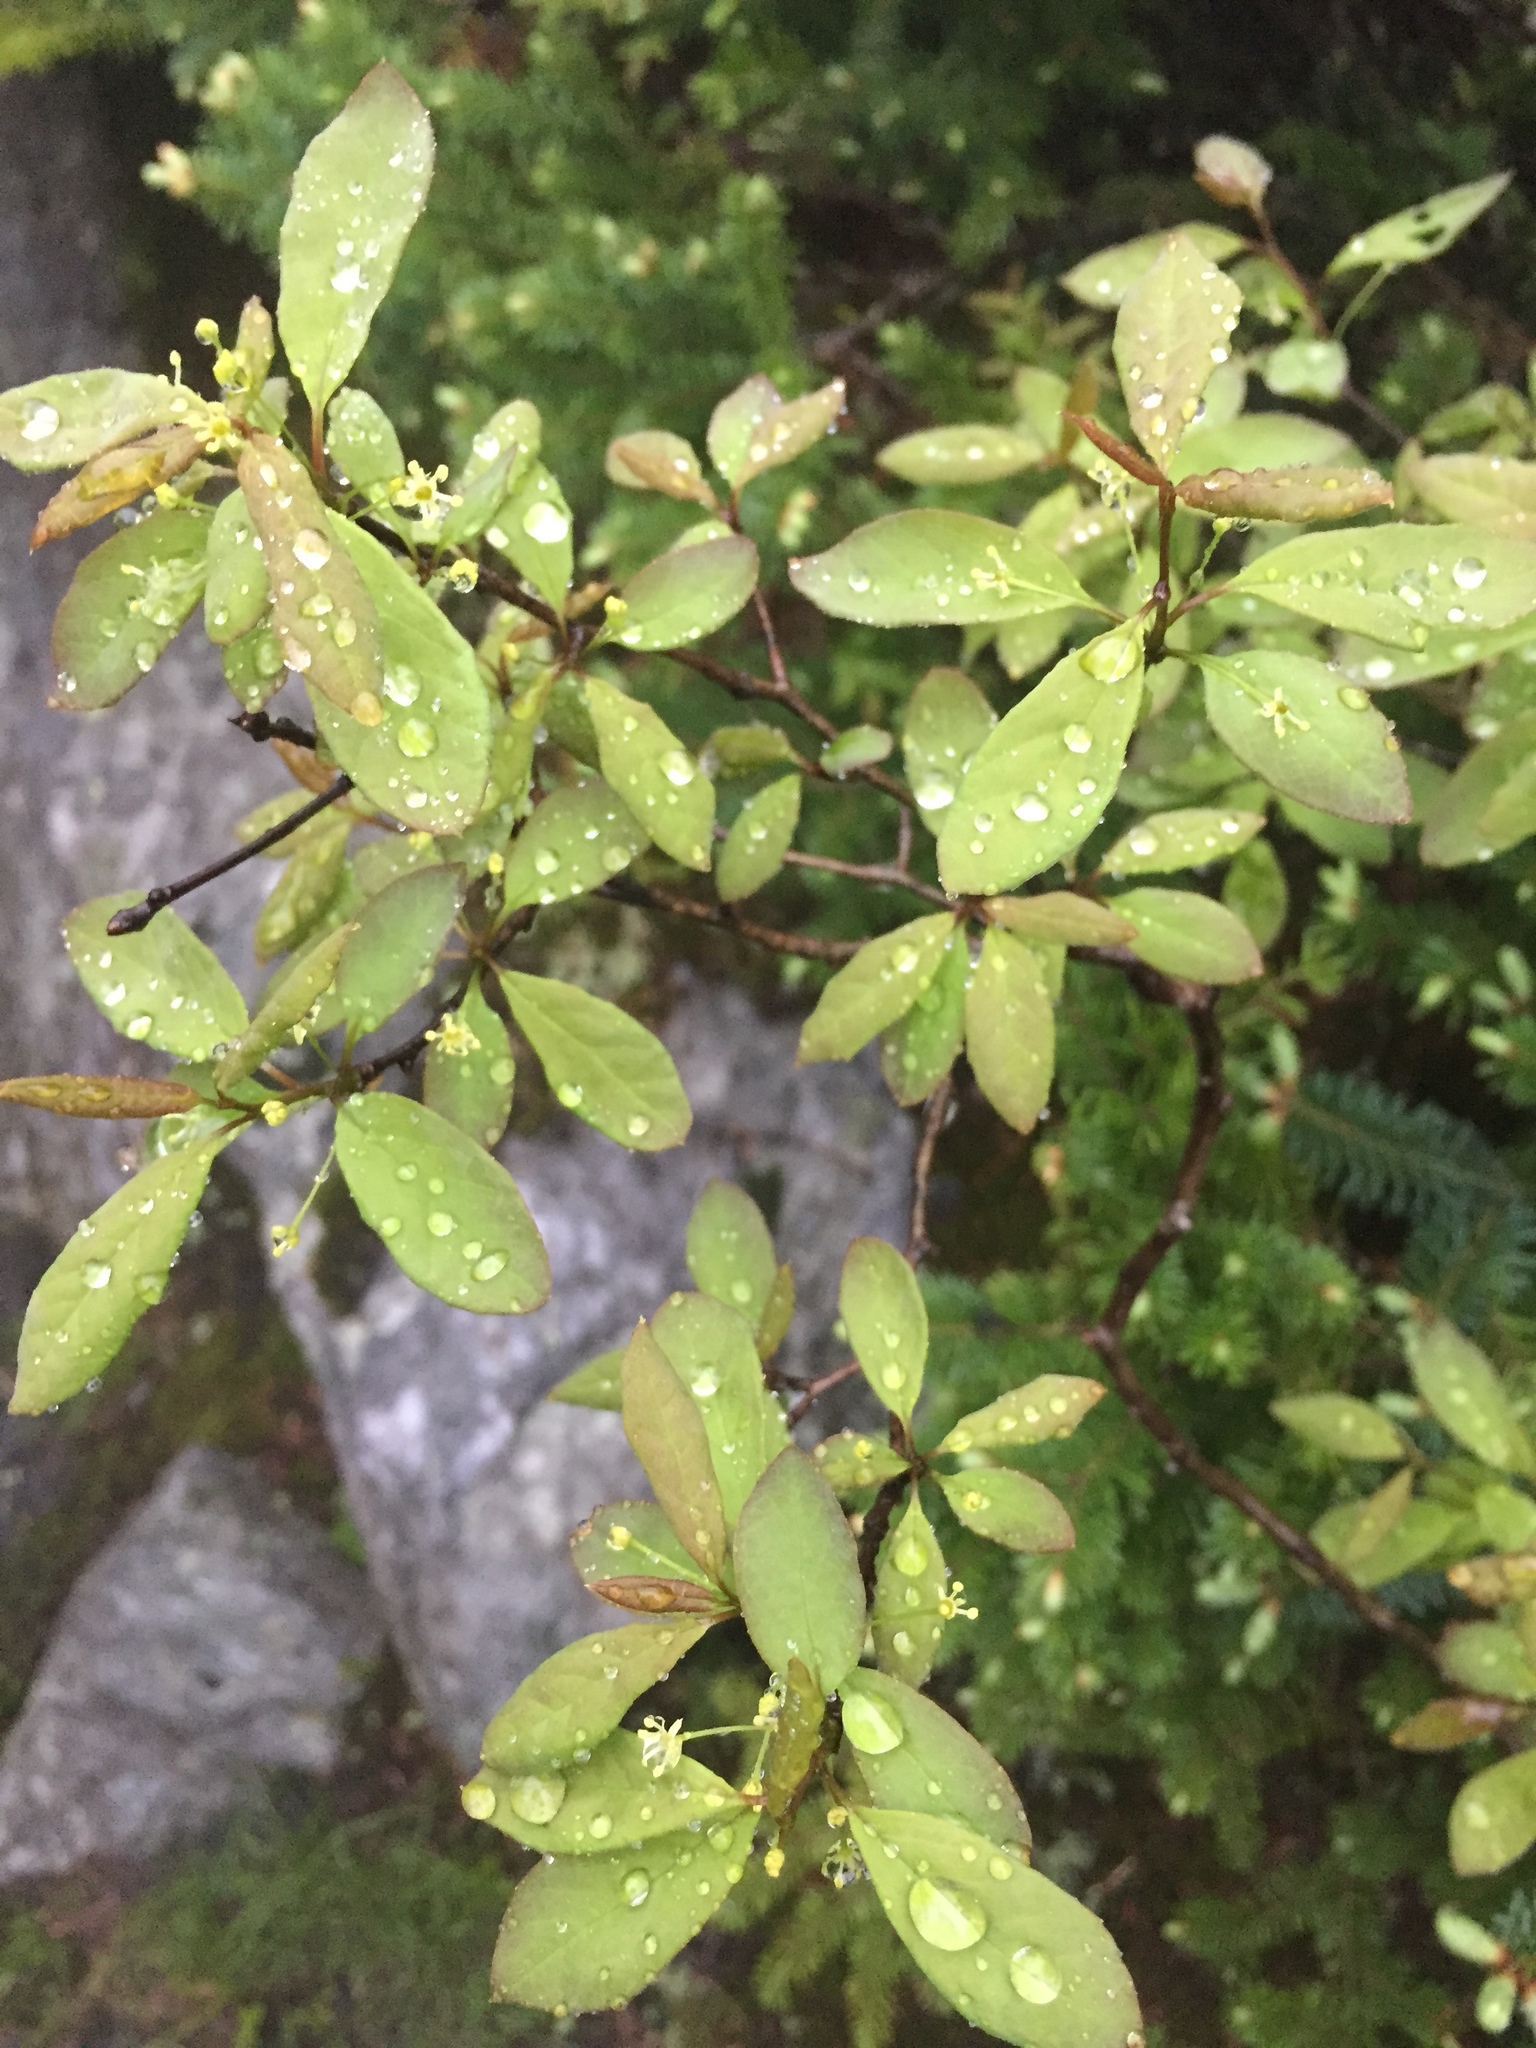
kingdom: Plantae
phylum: Tracheophyta
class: Magnoliopsida
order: Aquifoliales
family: Aquifoliaceae
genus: Ilex
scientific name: Ilex mucronata
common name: Catberry
